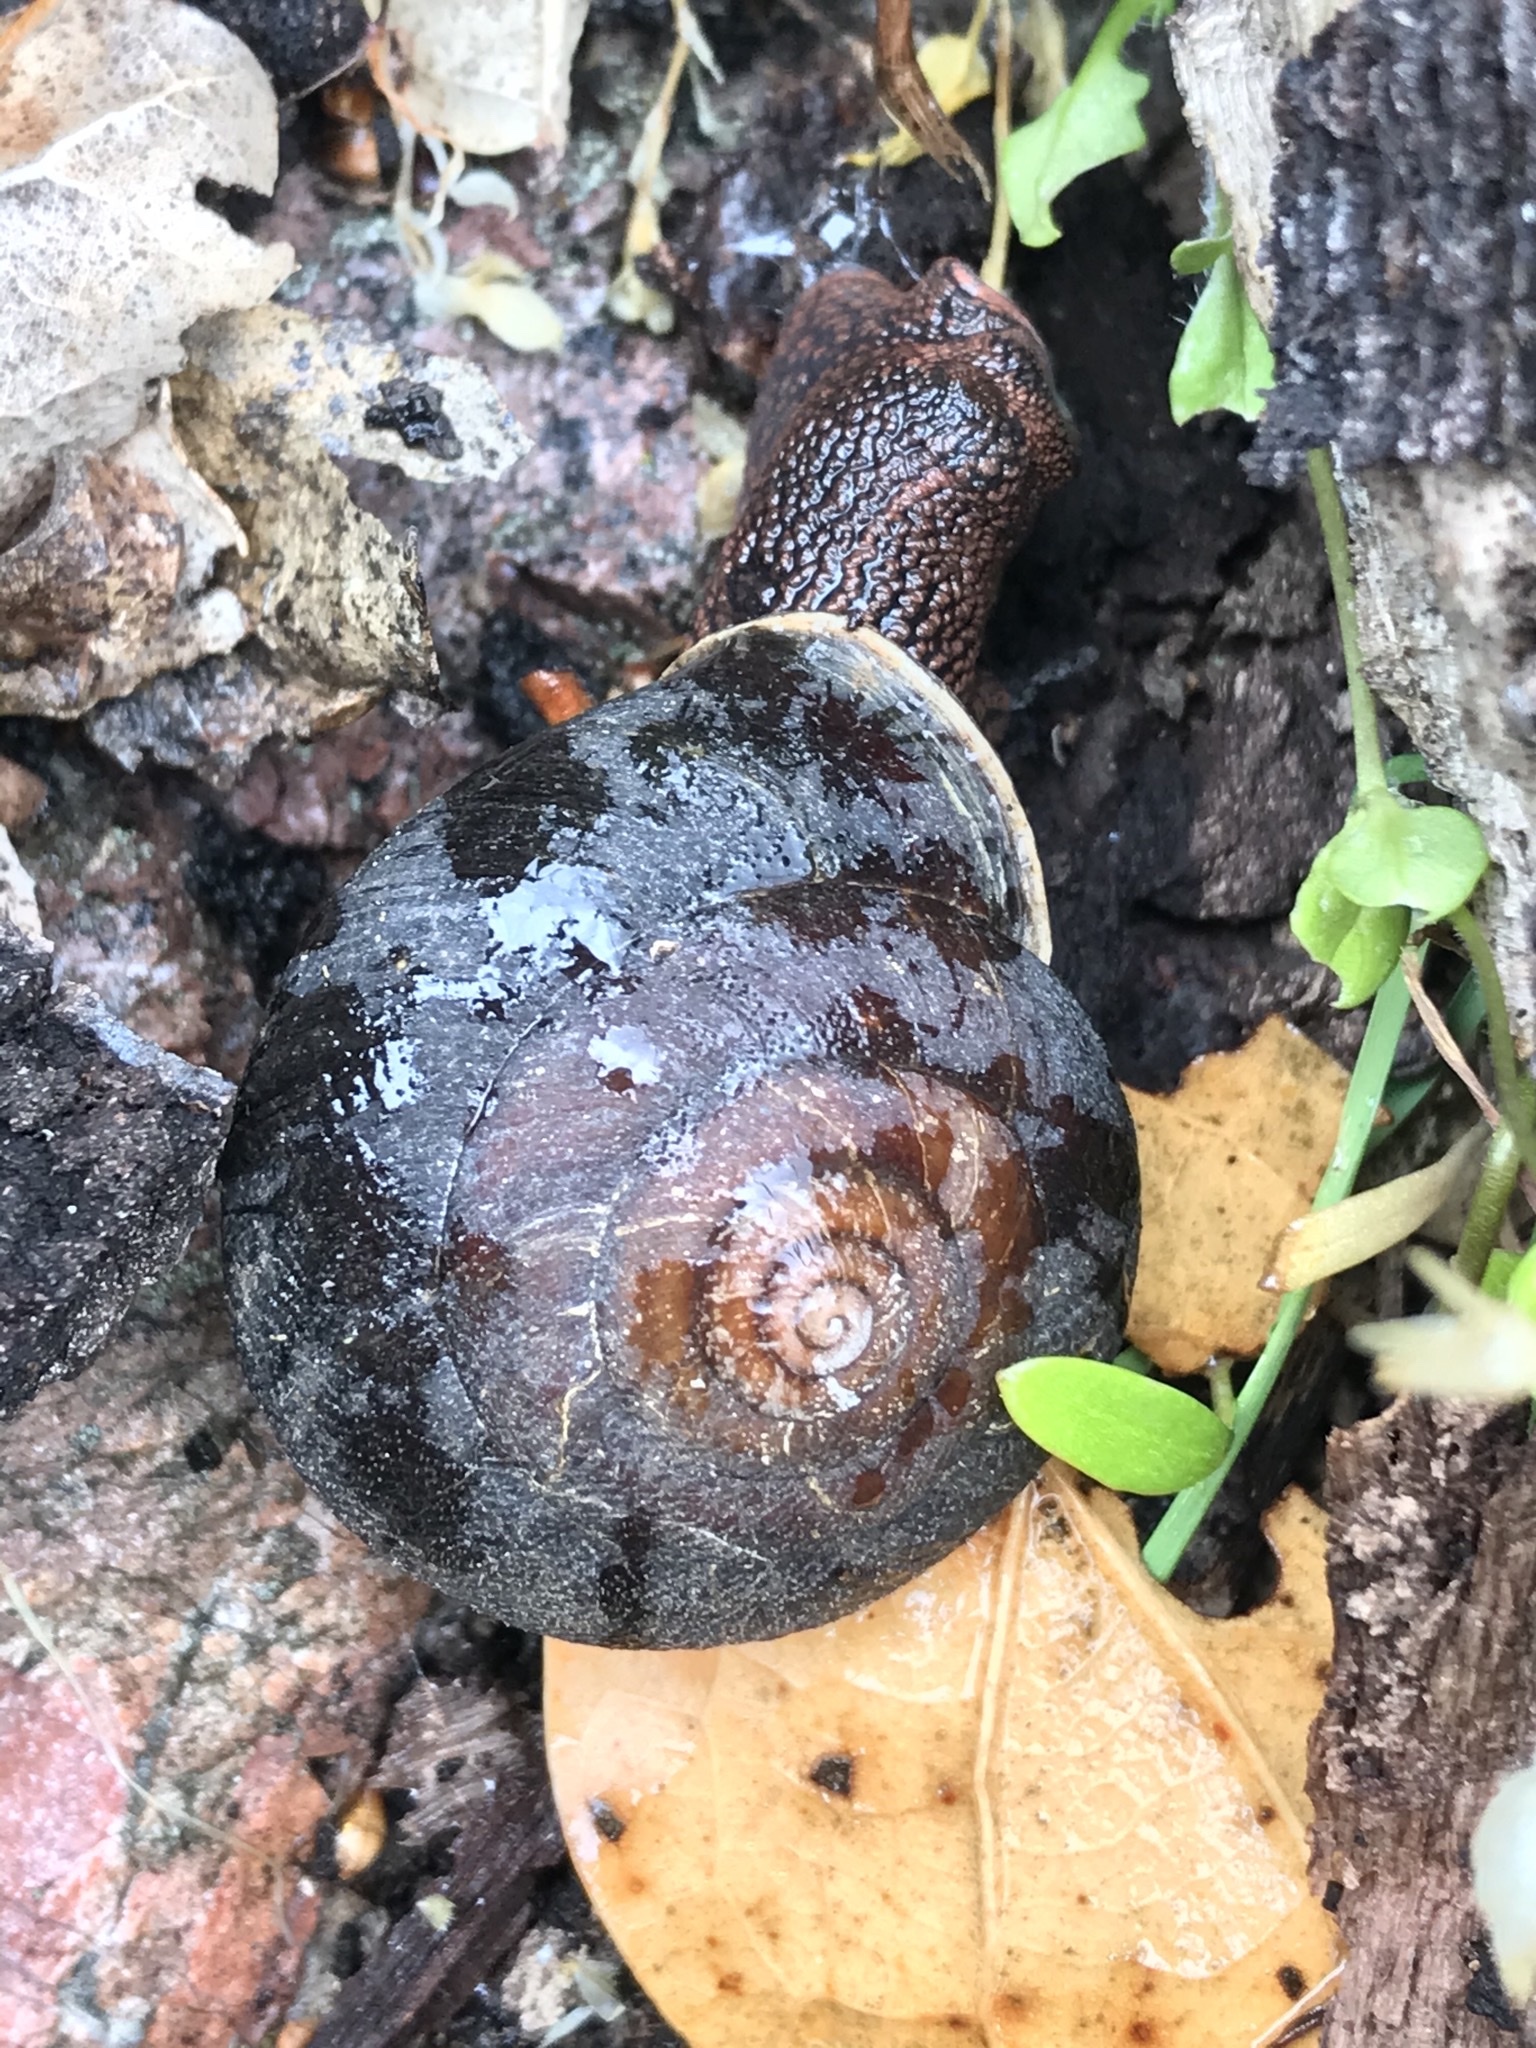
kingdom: Animalia
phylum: Mollusca
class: Gastropoda
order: Stylommatophora
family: Xanthonychidae
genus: Monadenia
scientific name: Monadenia infumata
